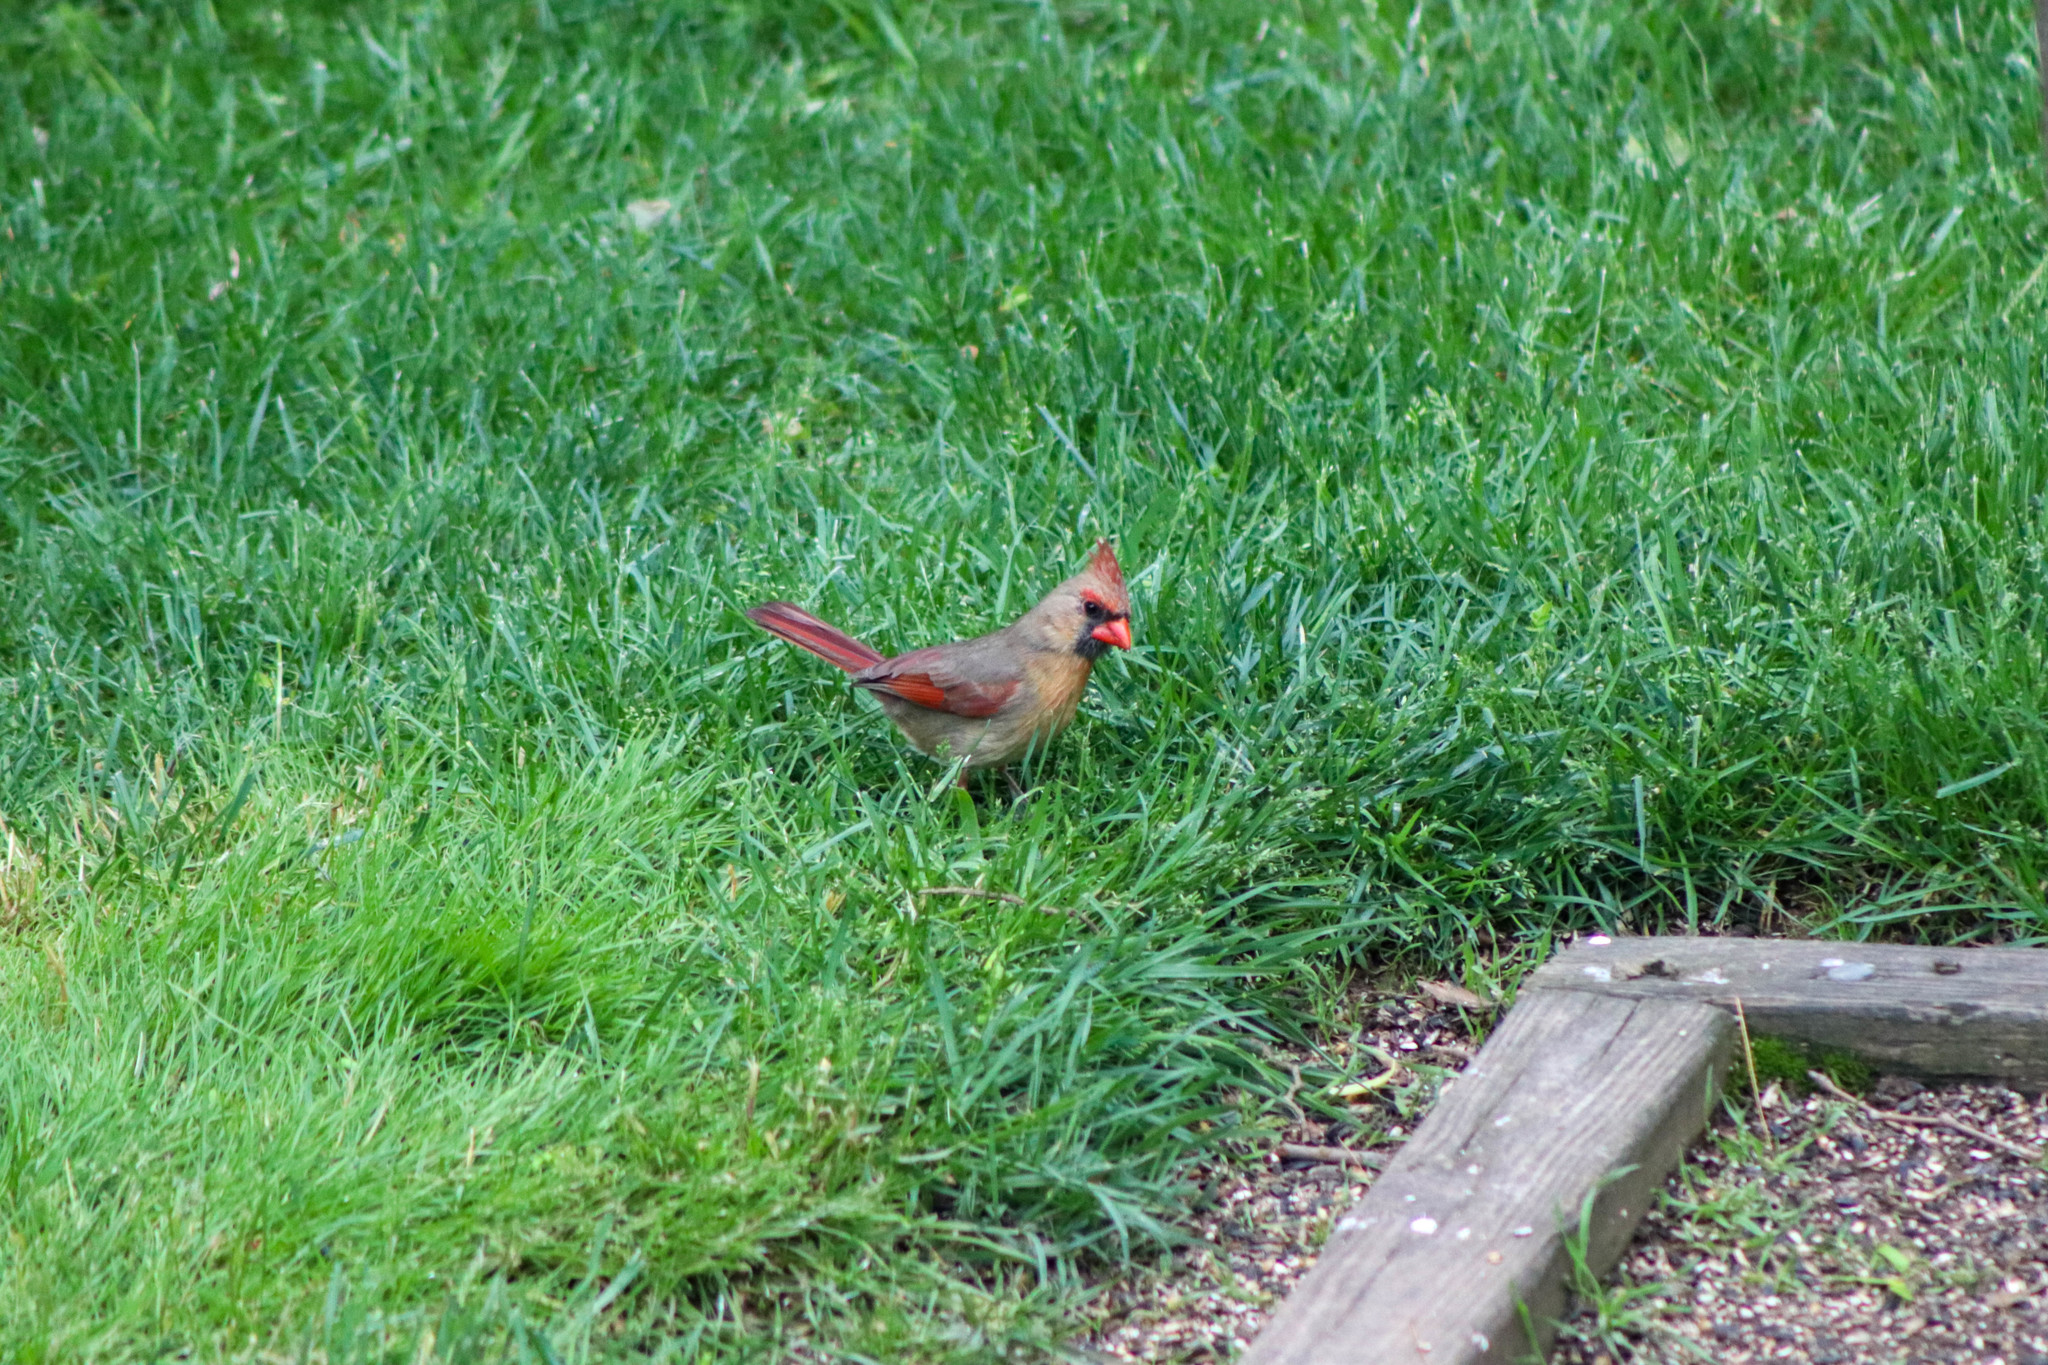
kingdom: Animalia
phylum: Chordata
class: Aves
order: Passeriformes
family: Cardinalidae
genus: Cardinalis
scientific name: Cardinalis cardinalis
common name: Northern cardinal
